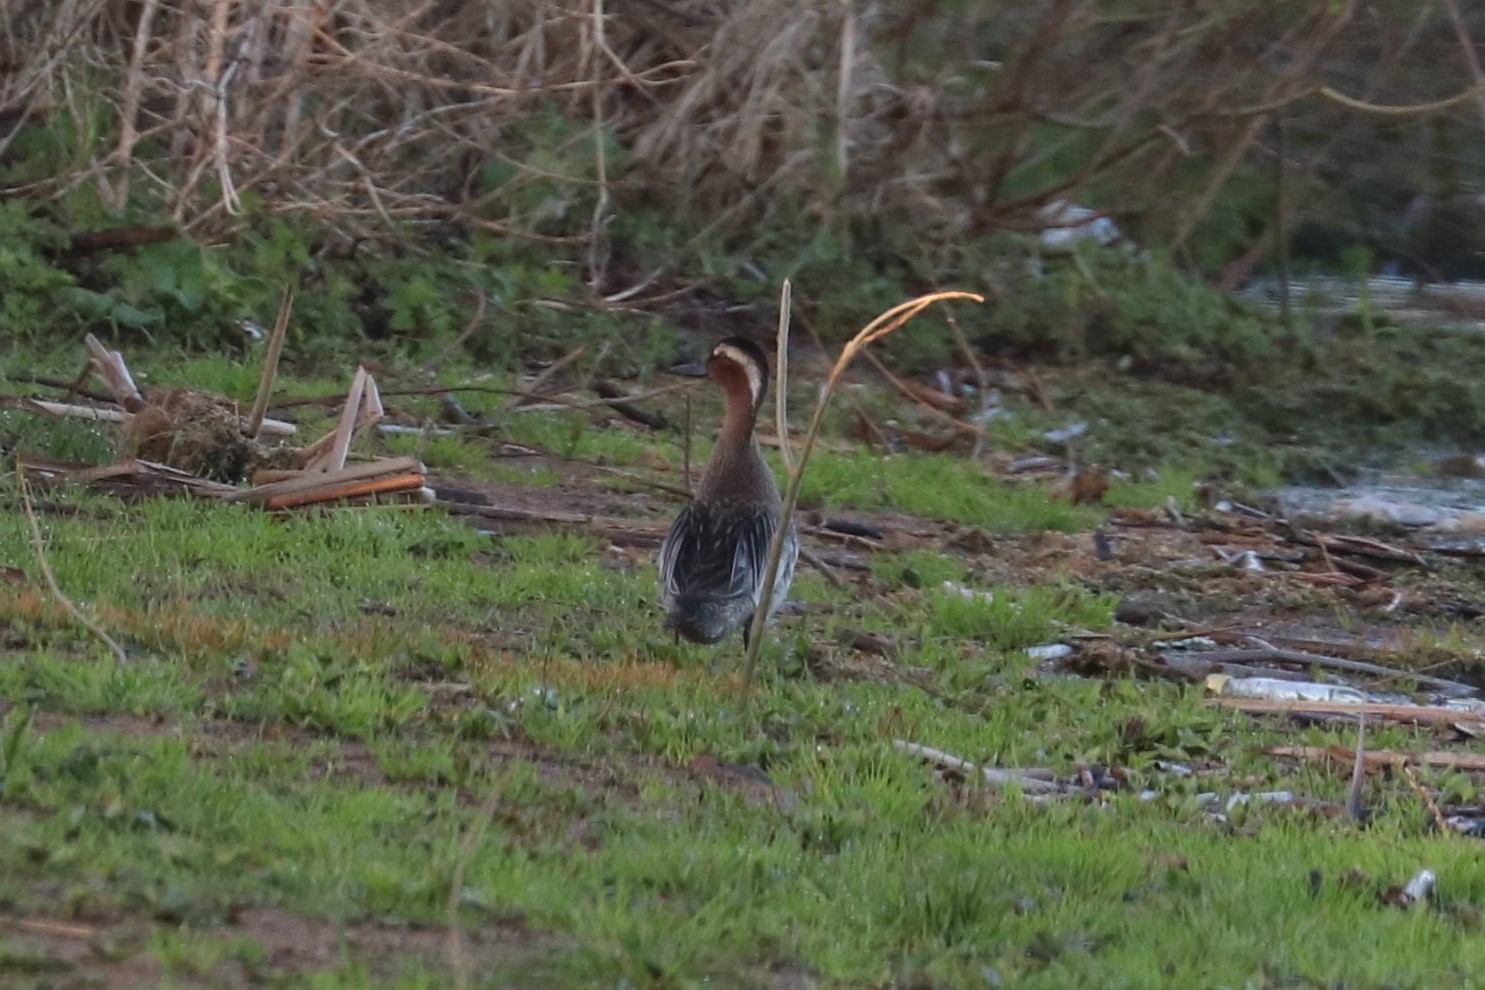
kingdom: Animalia
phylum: Chordata
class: Aves
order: Anseriformes
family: Anatidae
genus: Spatula
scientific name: Spatula querquedula
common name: Garganey
